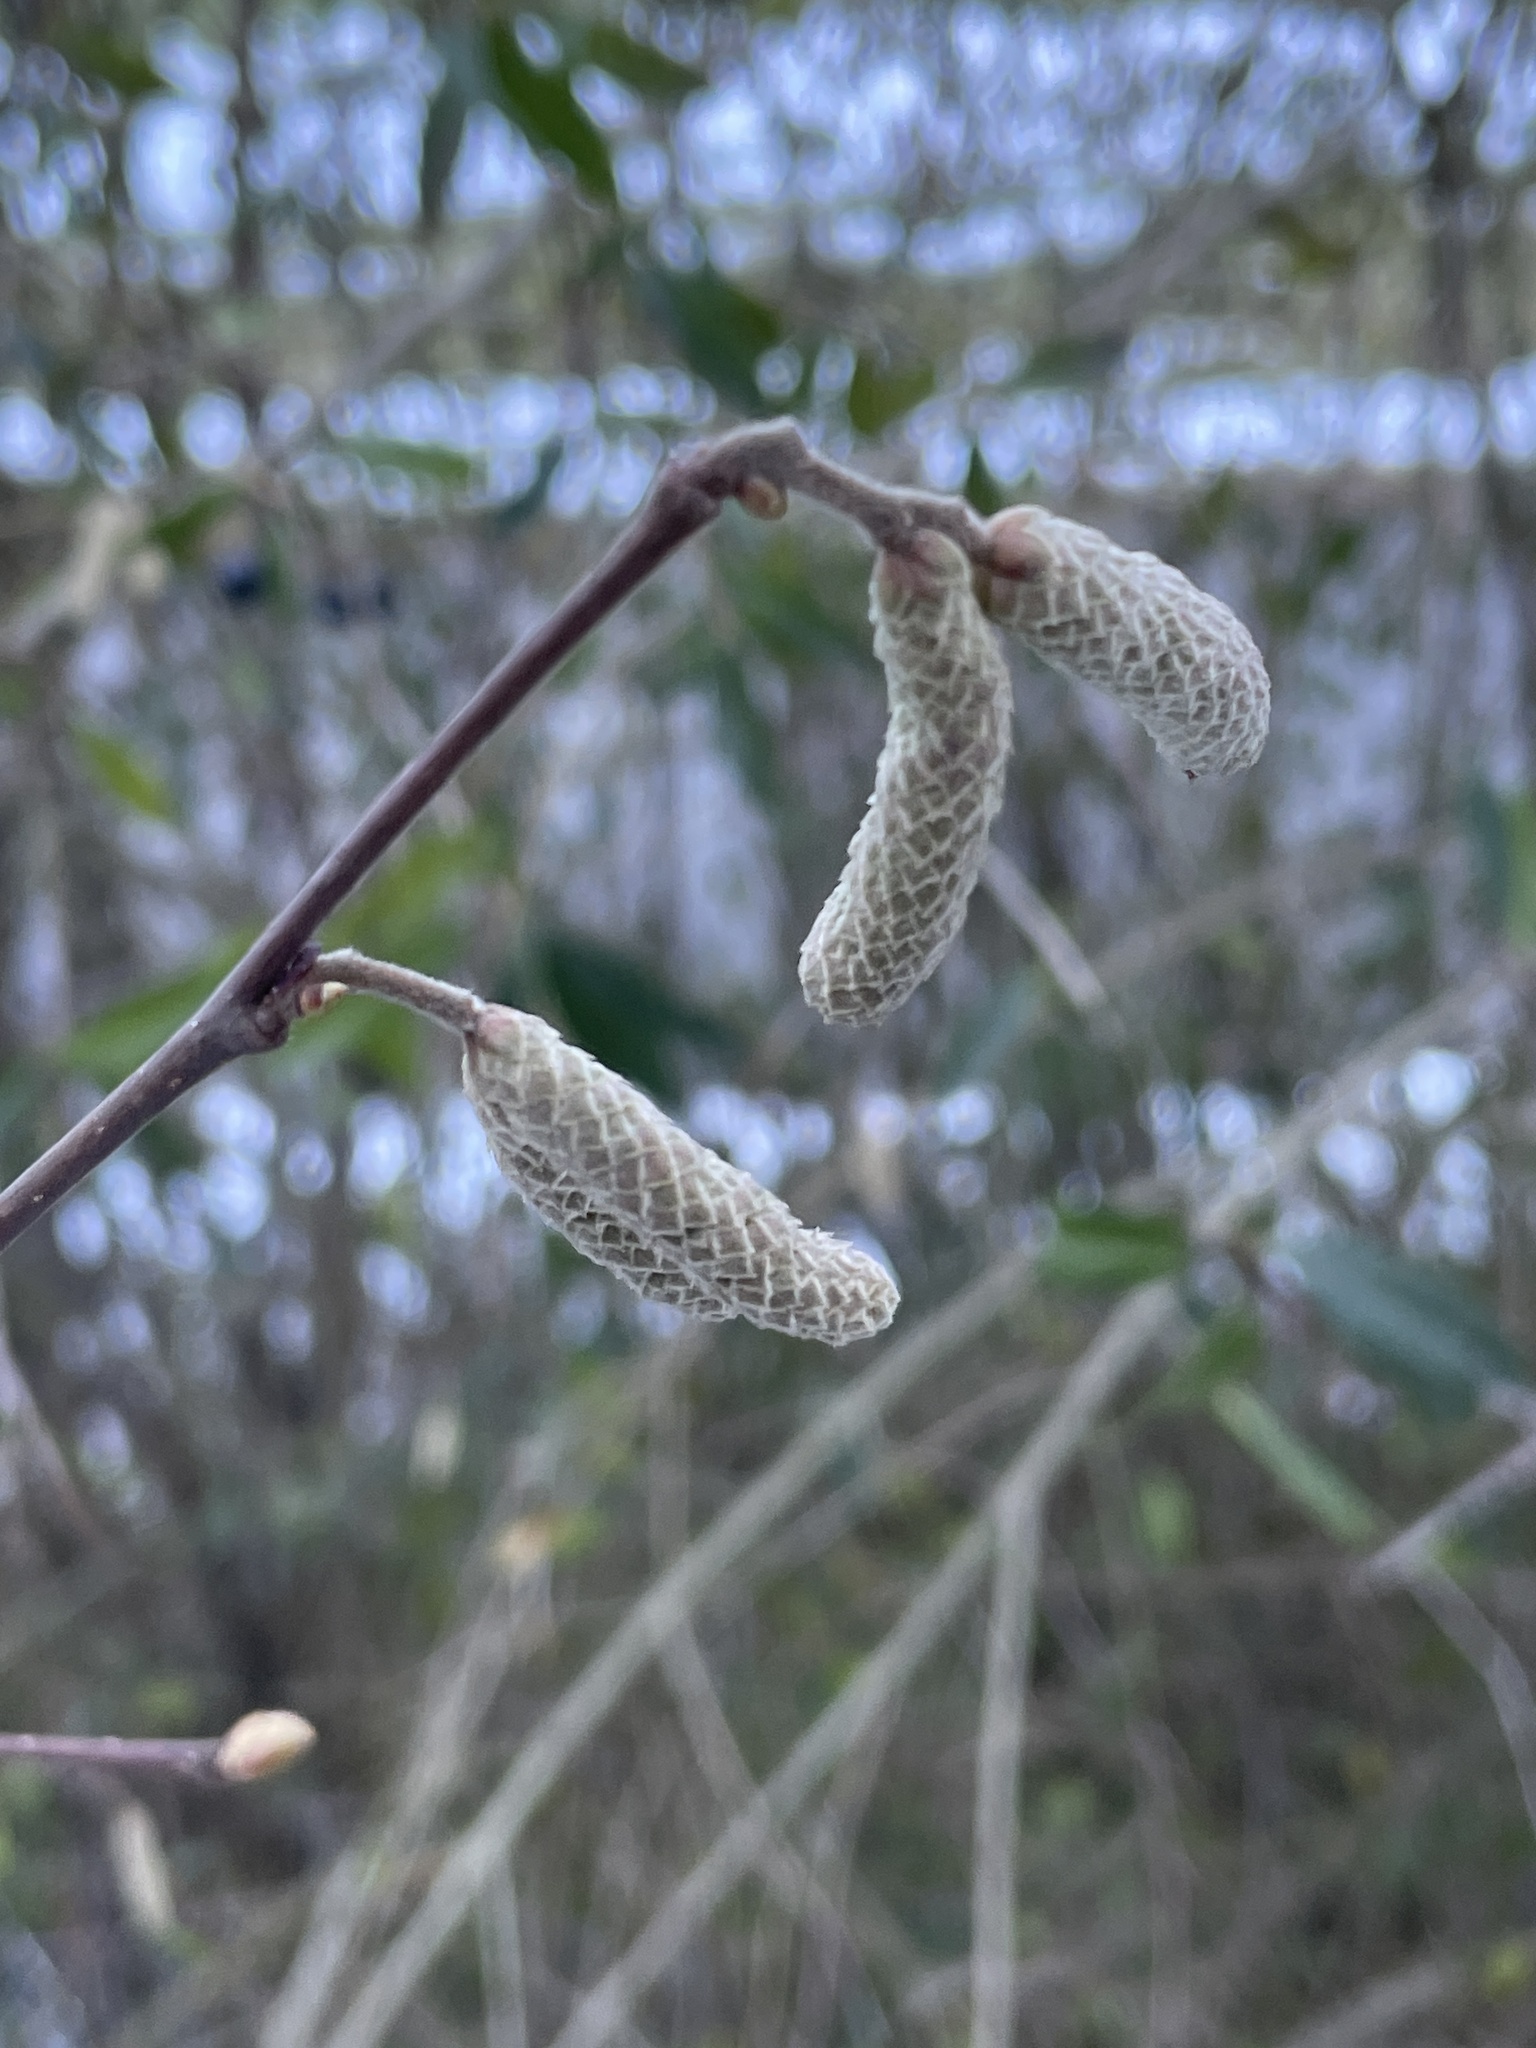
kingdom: Plantae
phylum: Tracheophyta
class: Magnoliopsida
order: Fagales
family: Betulaceae
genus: Corylus
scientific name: Corylus avellana
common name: European hazel
